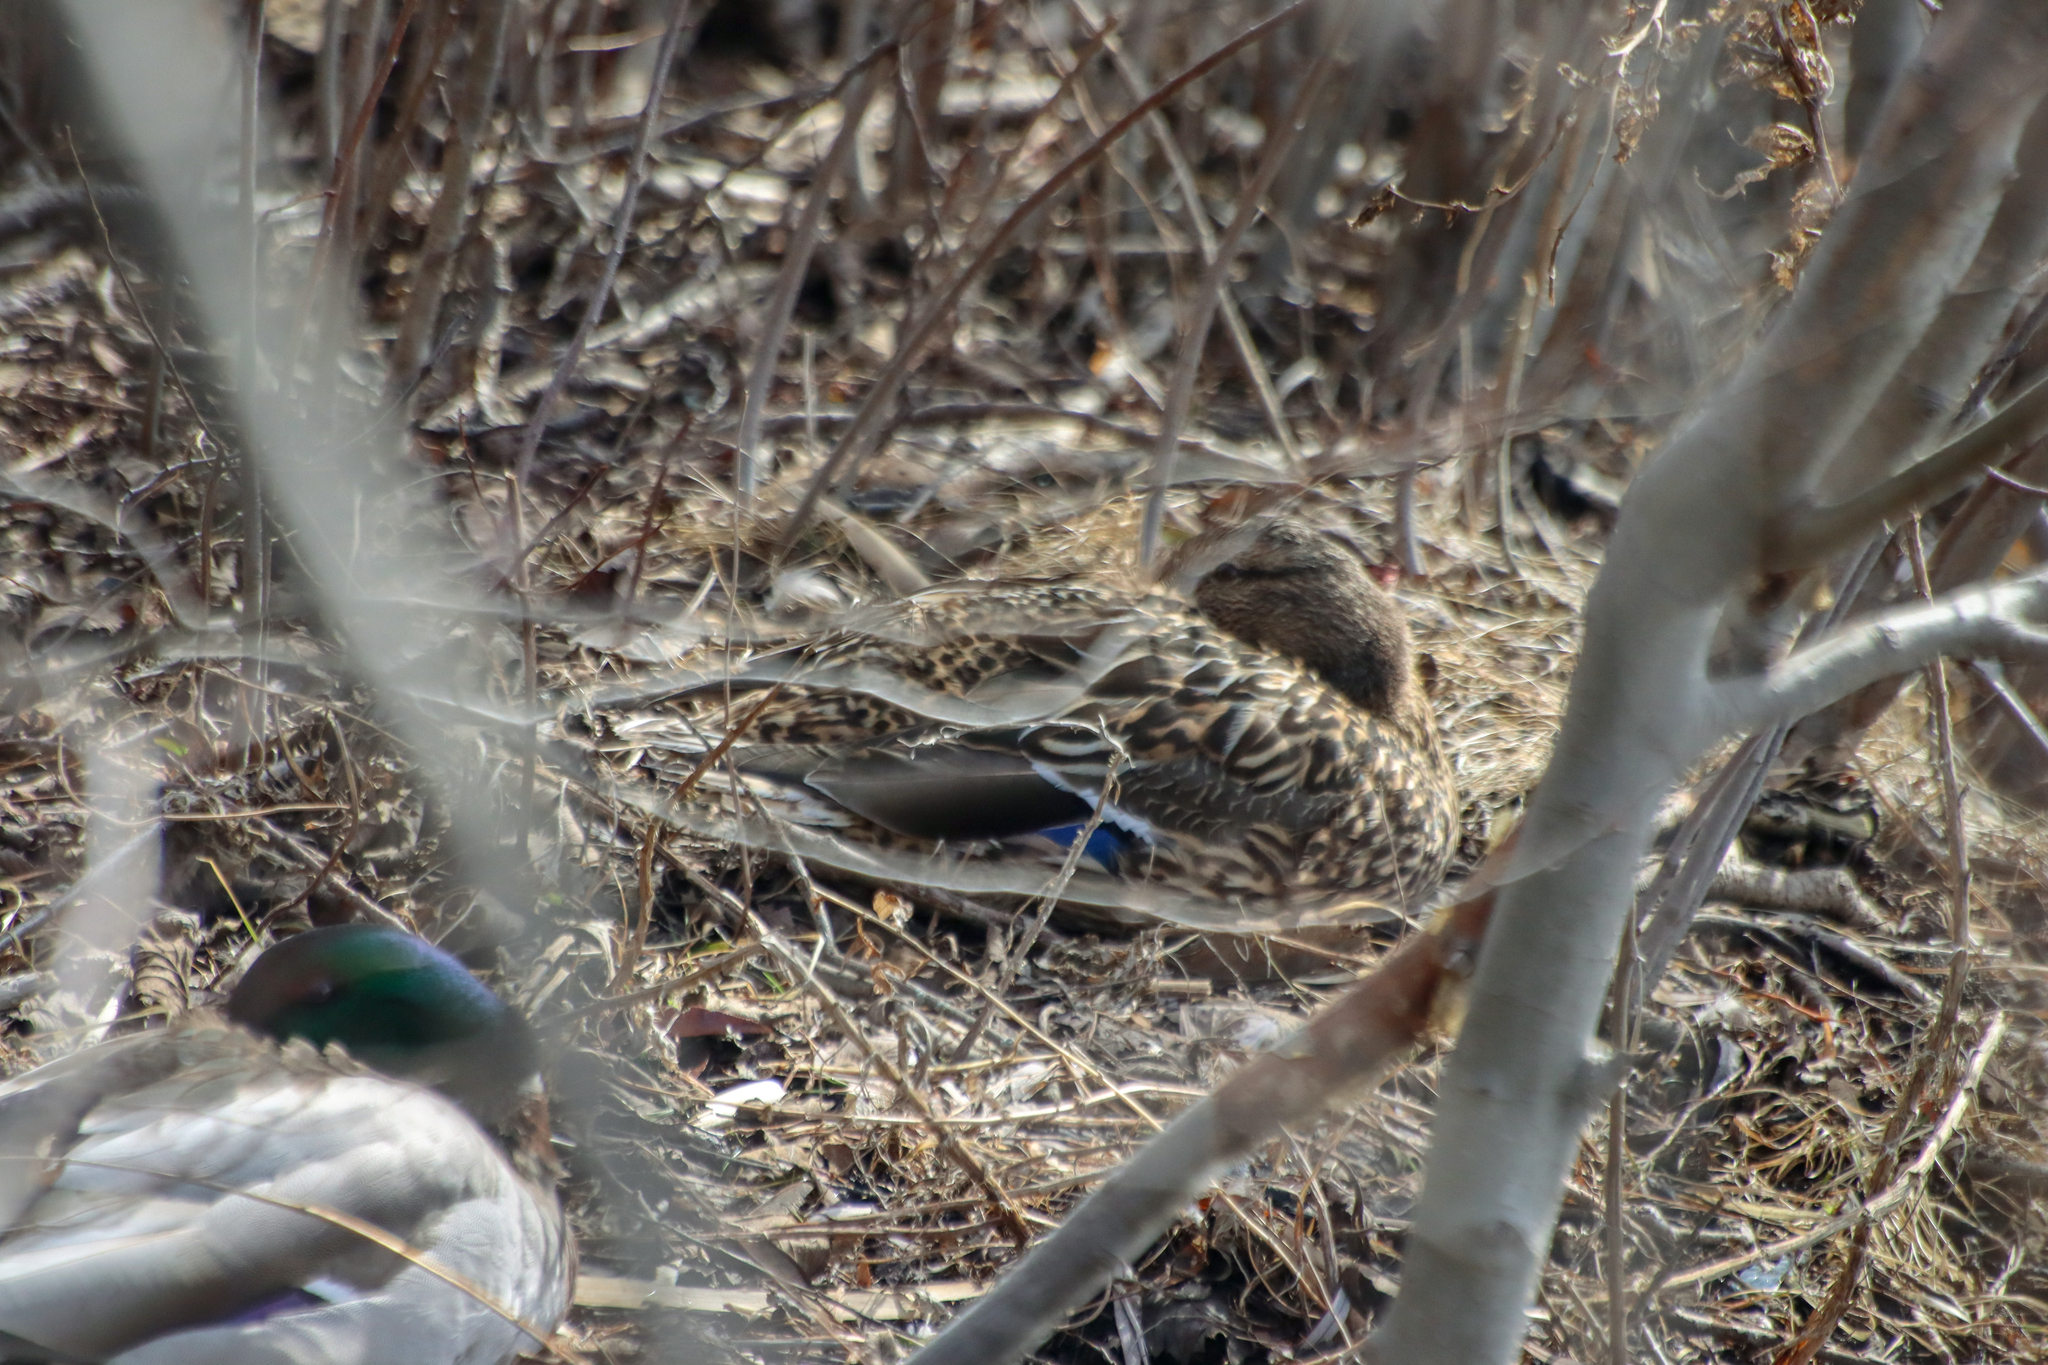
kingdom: Animalia
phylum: Chordata
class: Aves
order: Anseriformes
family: Anatidae
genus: Anas
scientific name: Anas platyrhynchos
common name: Mallard
